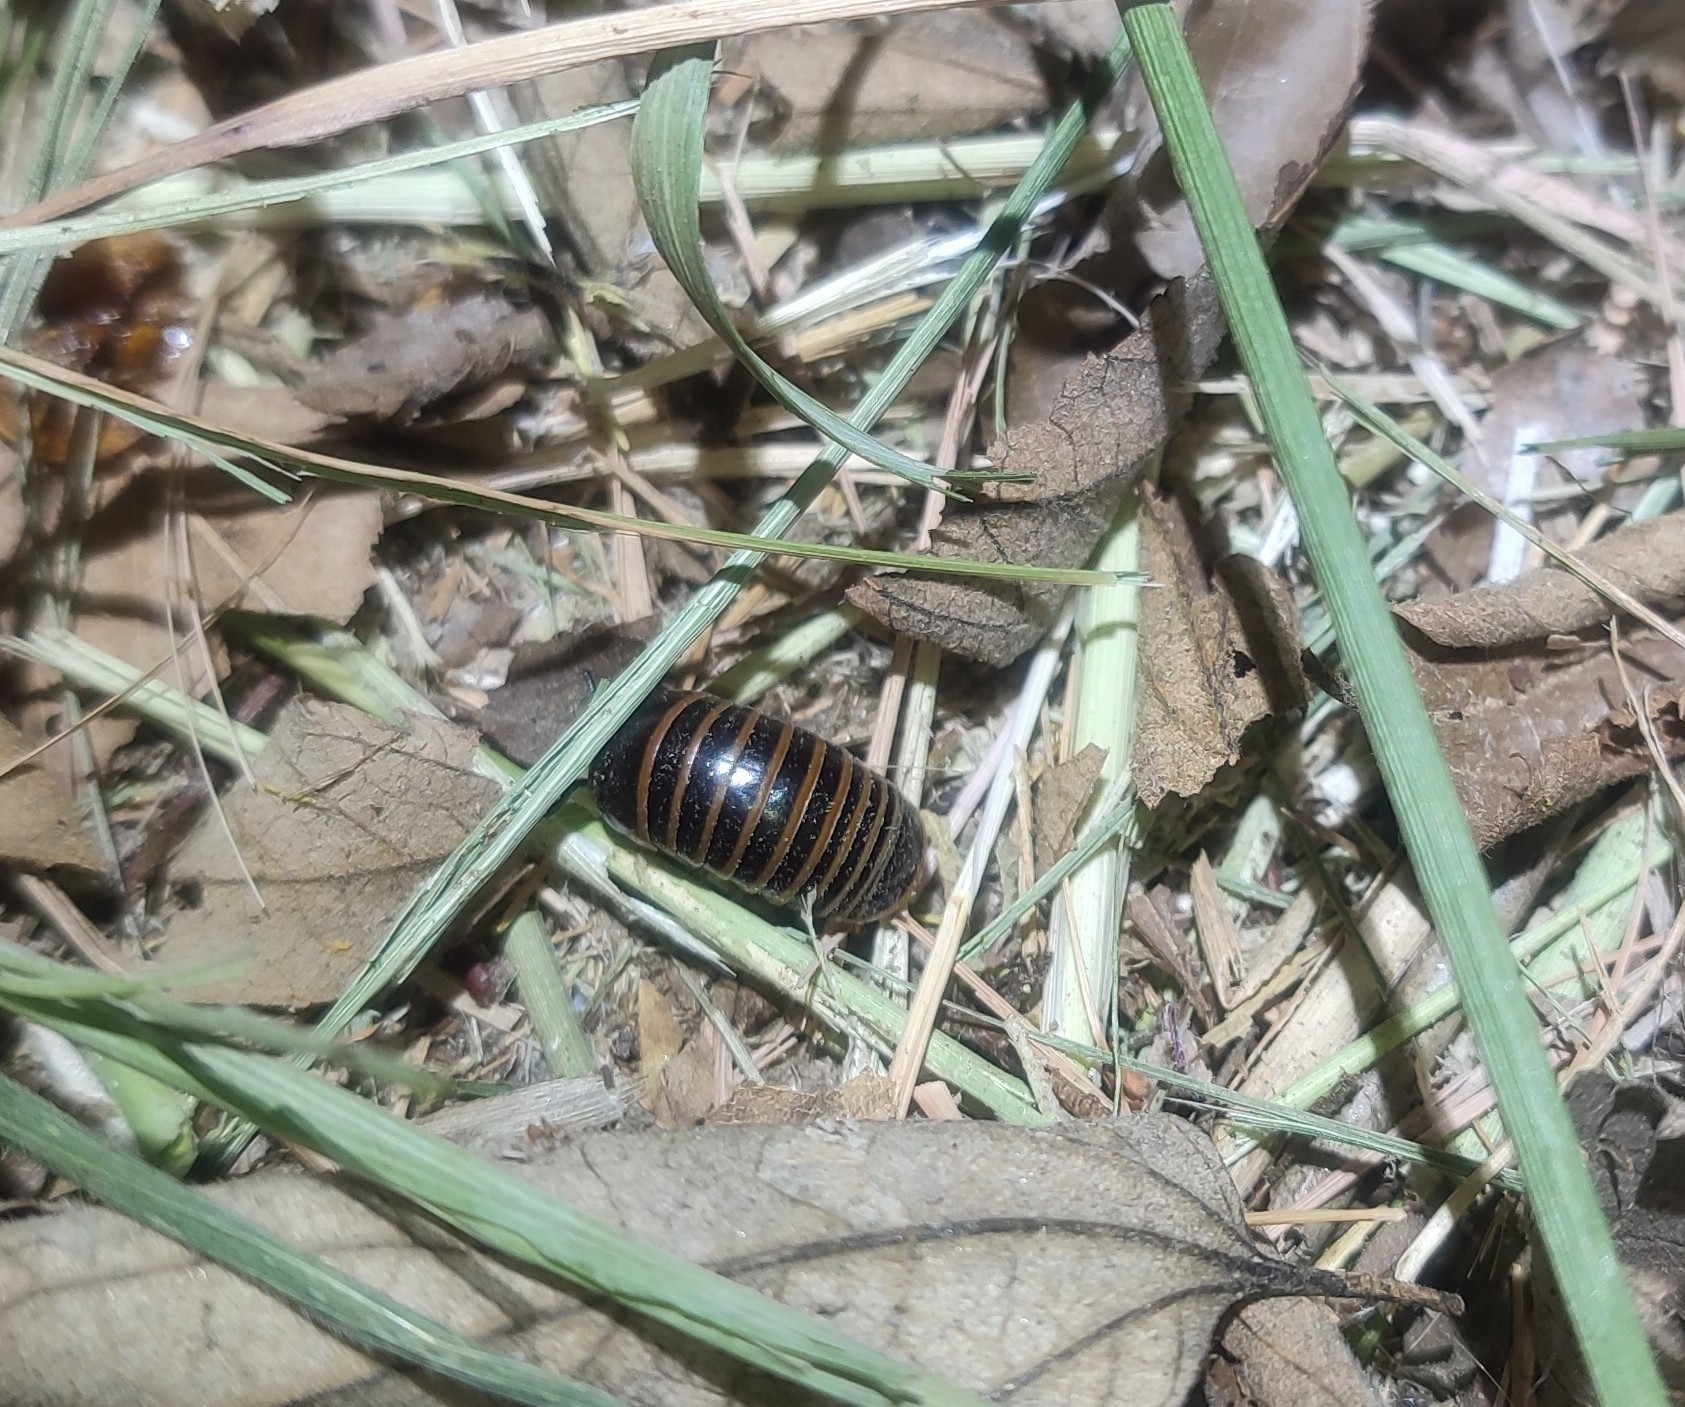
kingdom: Animalia
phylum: Arthropoda
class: Diplopoda
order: Glomerida
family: Glomeridae
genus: Glomeris
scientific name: Glomeris marginata
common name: Bordered pill millipede
